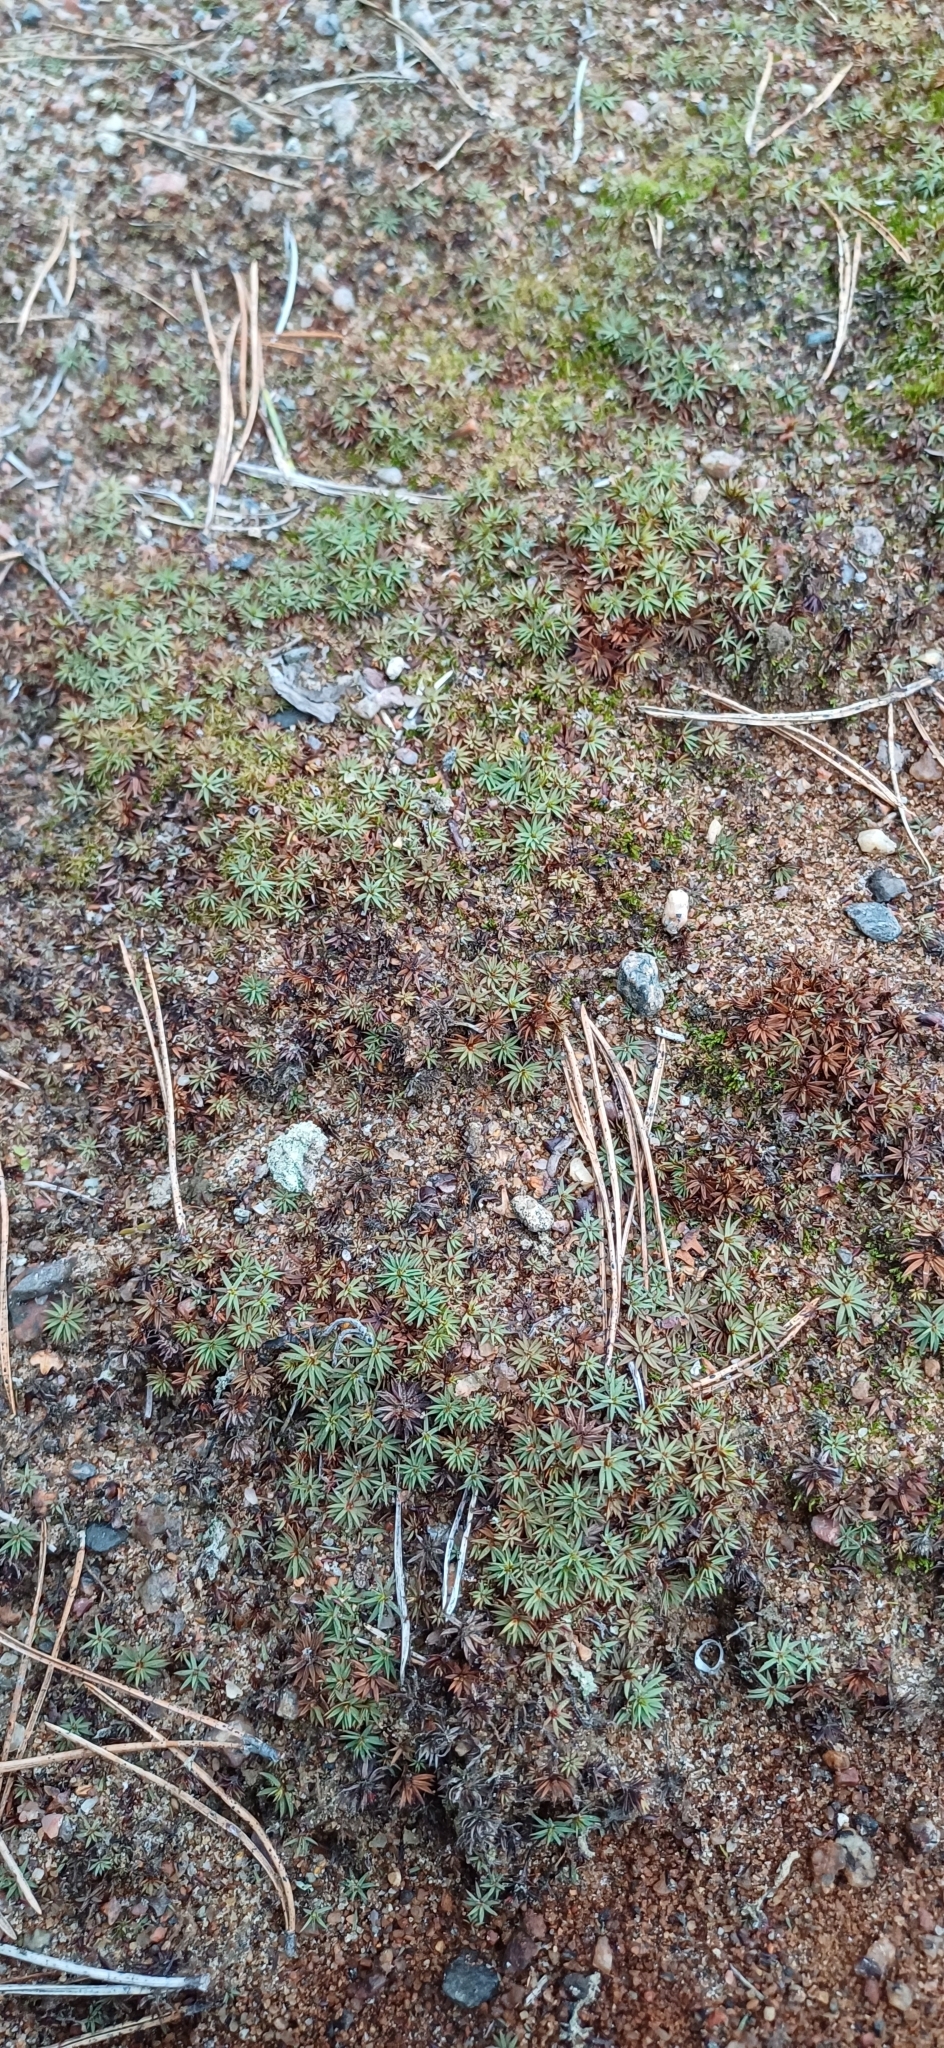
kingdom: Plantae
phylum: Bryophyta
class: Polytrichopsida
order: Polytrichales
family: Polytrichaceae
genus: Pogonatum
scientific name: Pogonatum urnigerum
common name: Urn hair moss
